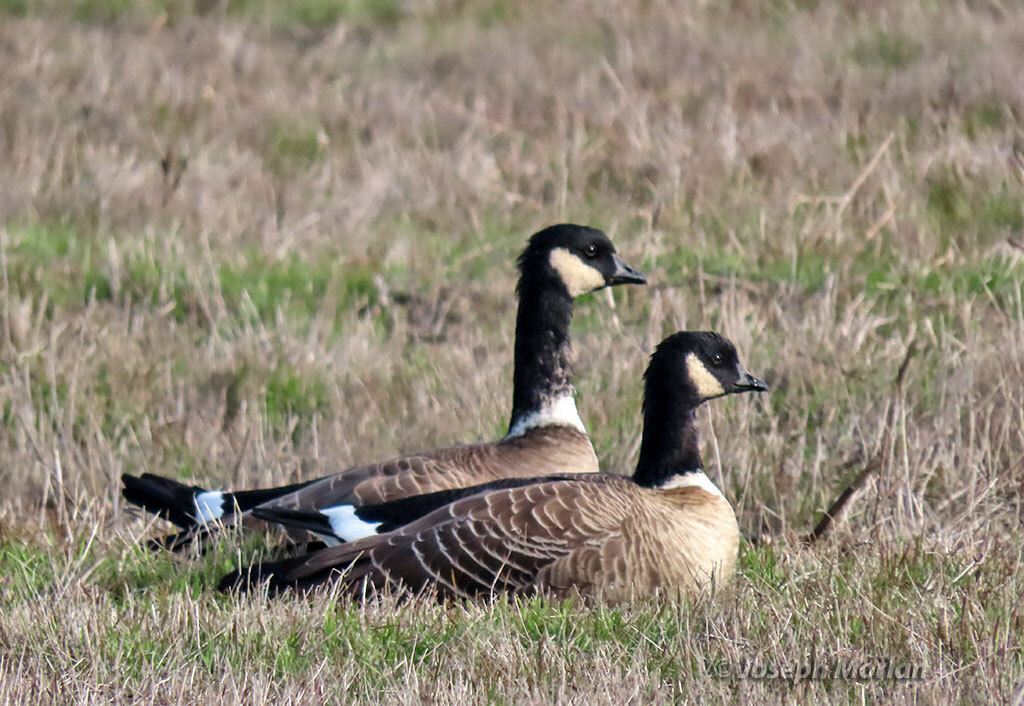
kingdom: Animalia
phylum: Chordata
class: Aves
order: Anseriformes
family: Anatidae
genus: Branta
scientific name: Branta hutchinsii
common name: Cackling goose
